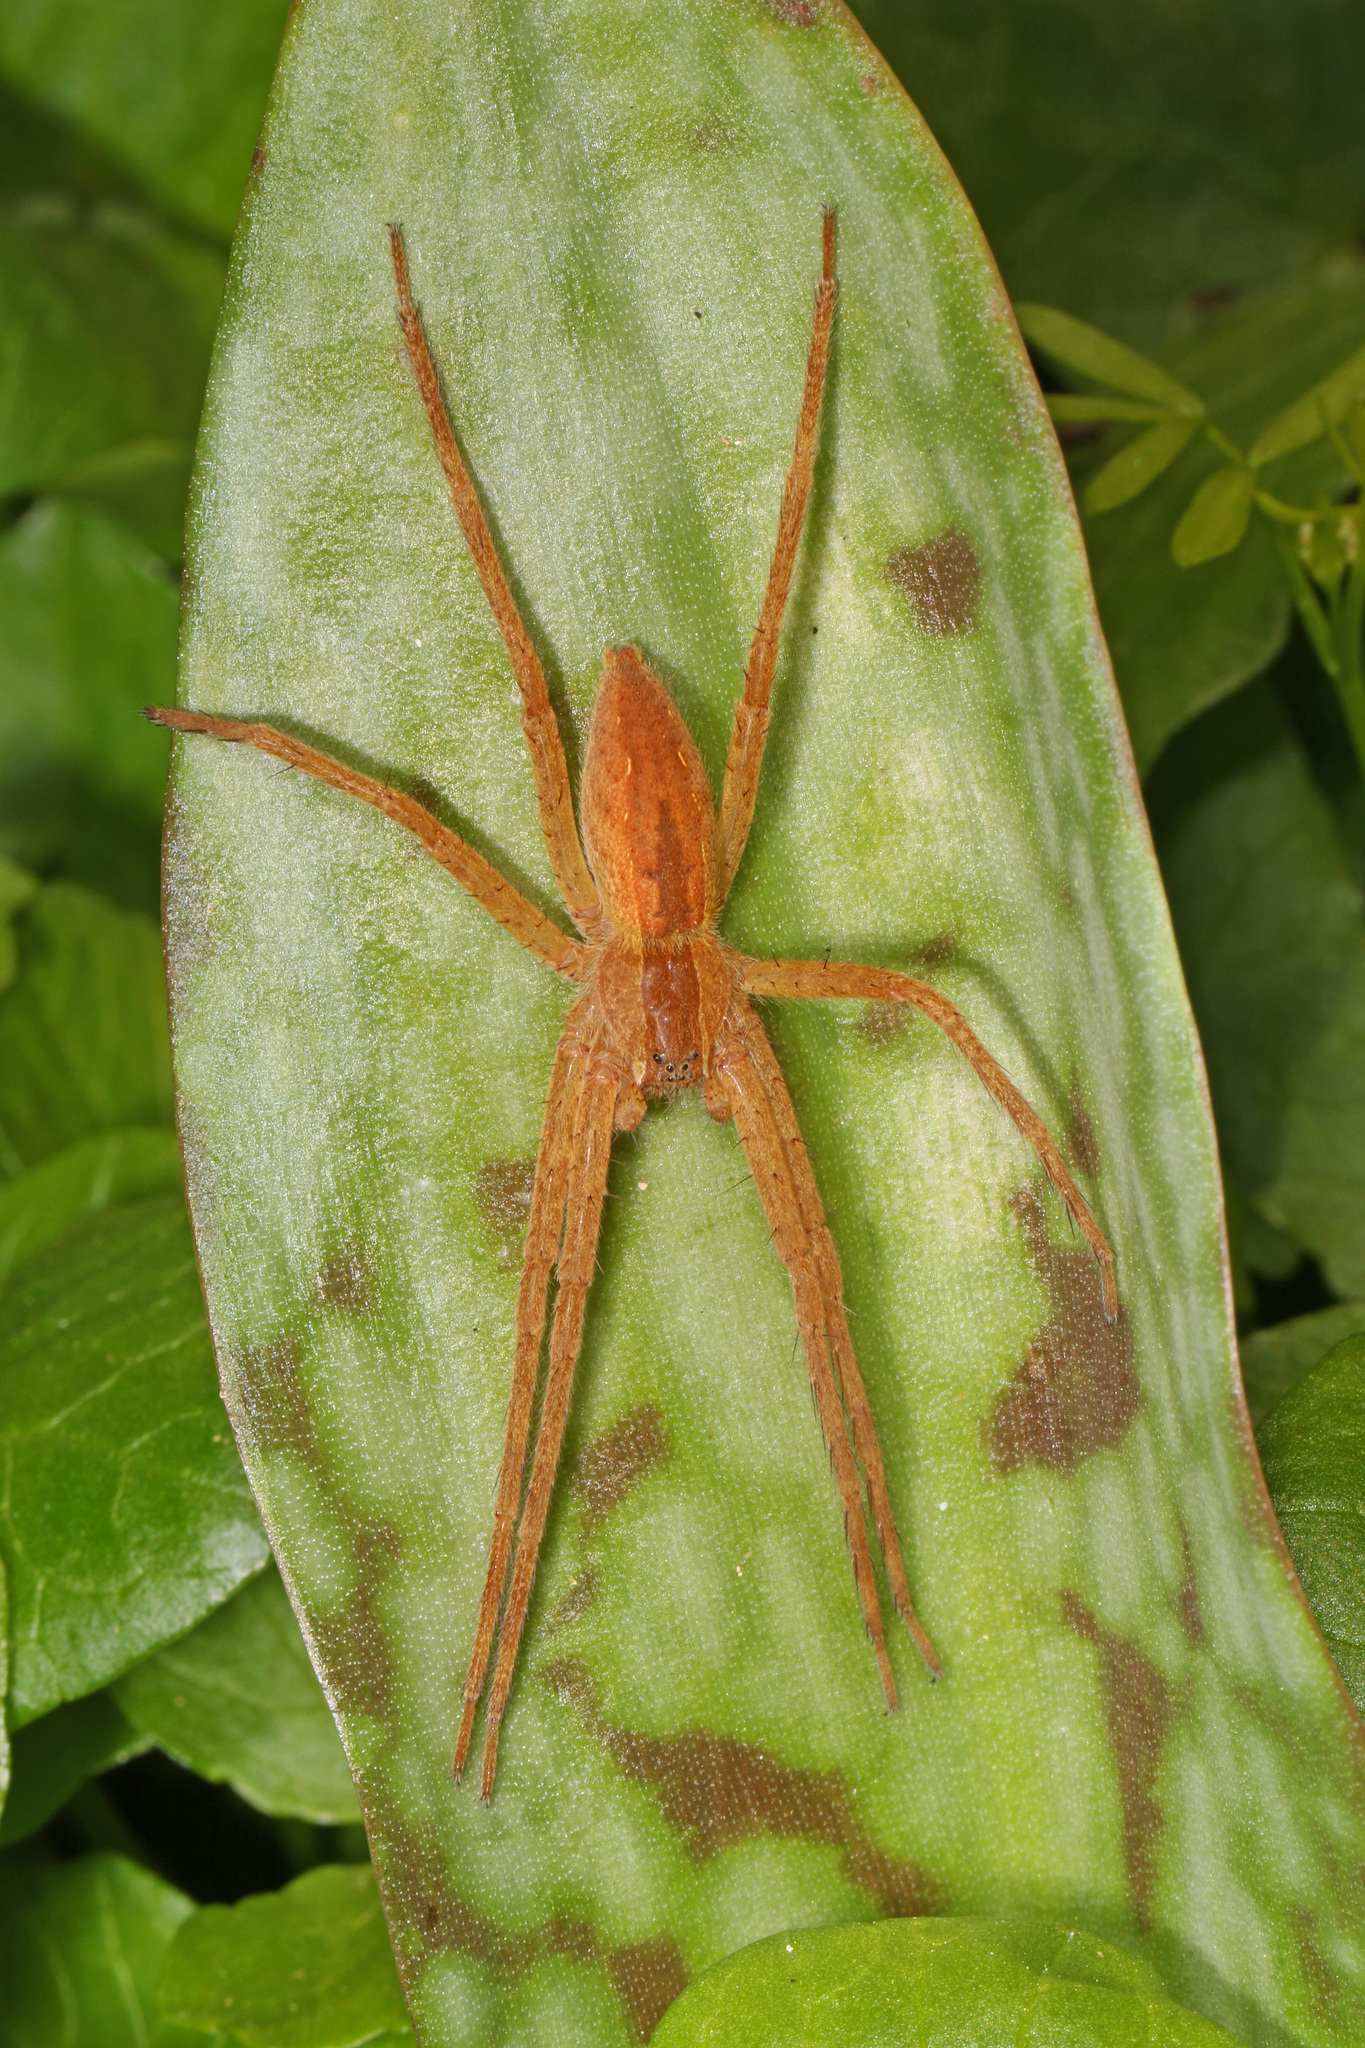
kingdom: Animalia
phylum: Arthropoda
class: Arachnida
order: Araneae
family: Pisauridae
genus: Pisaurina
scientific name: Pisaurina mira
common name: American nursery web spider
